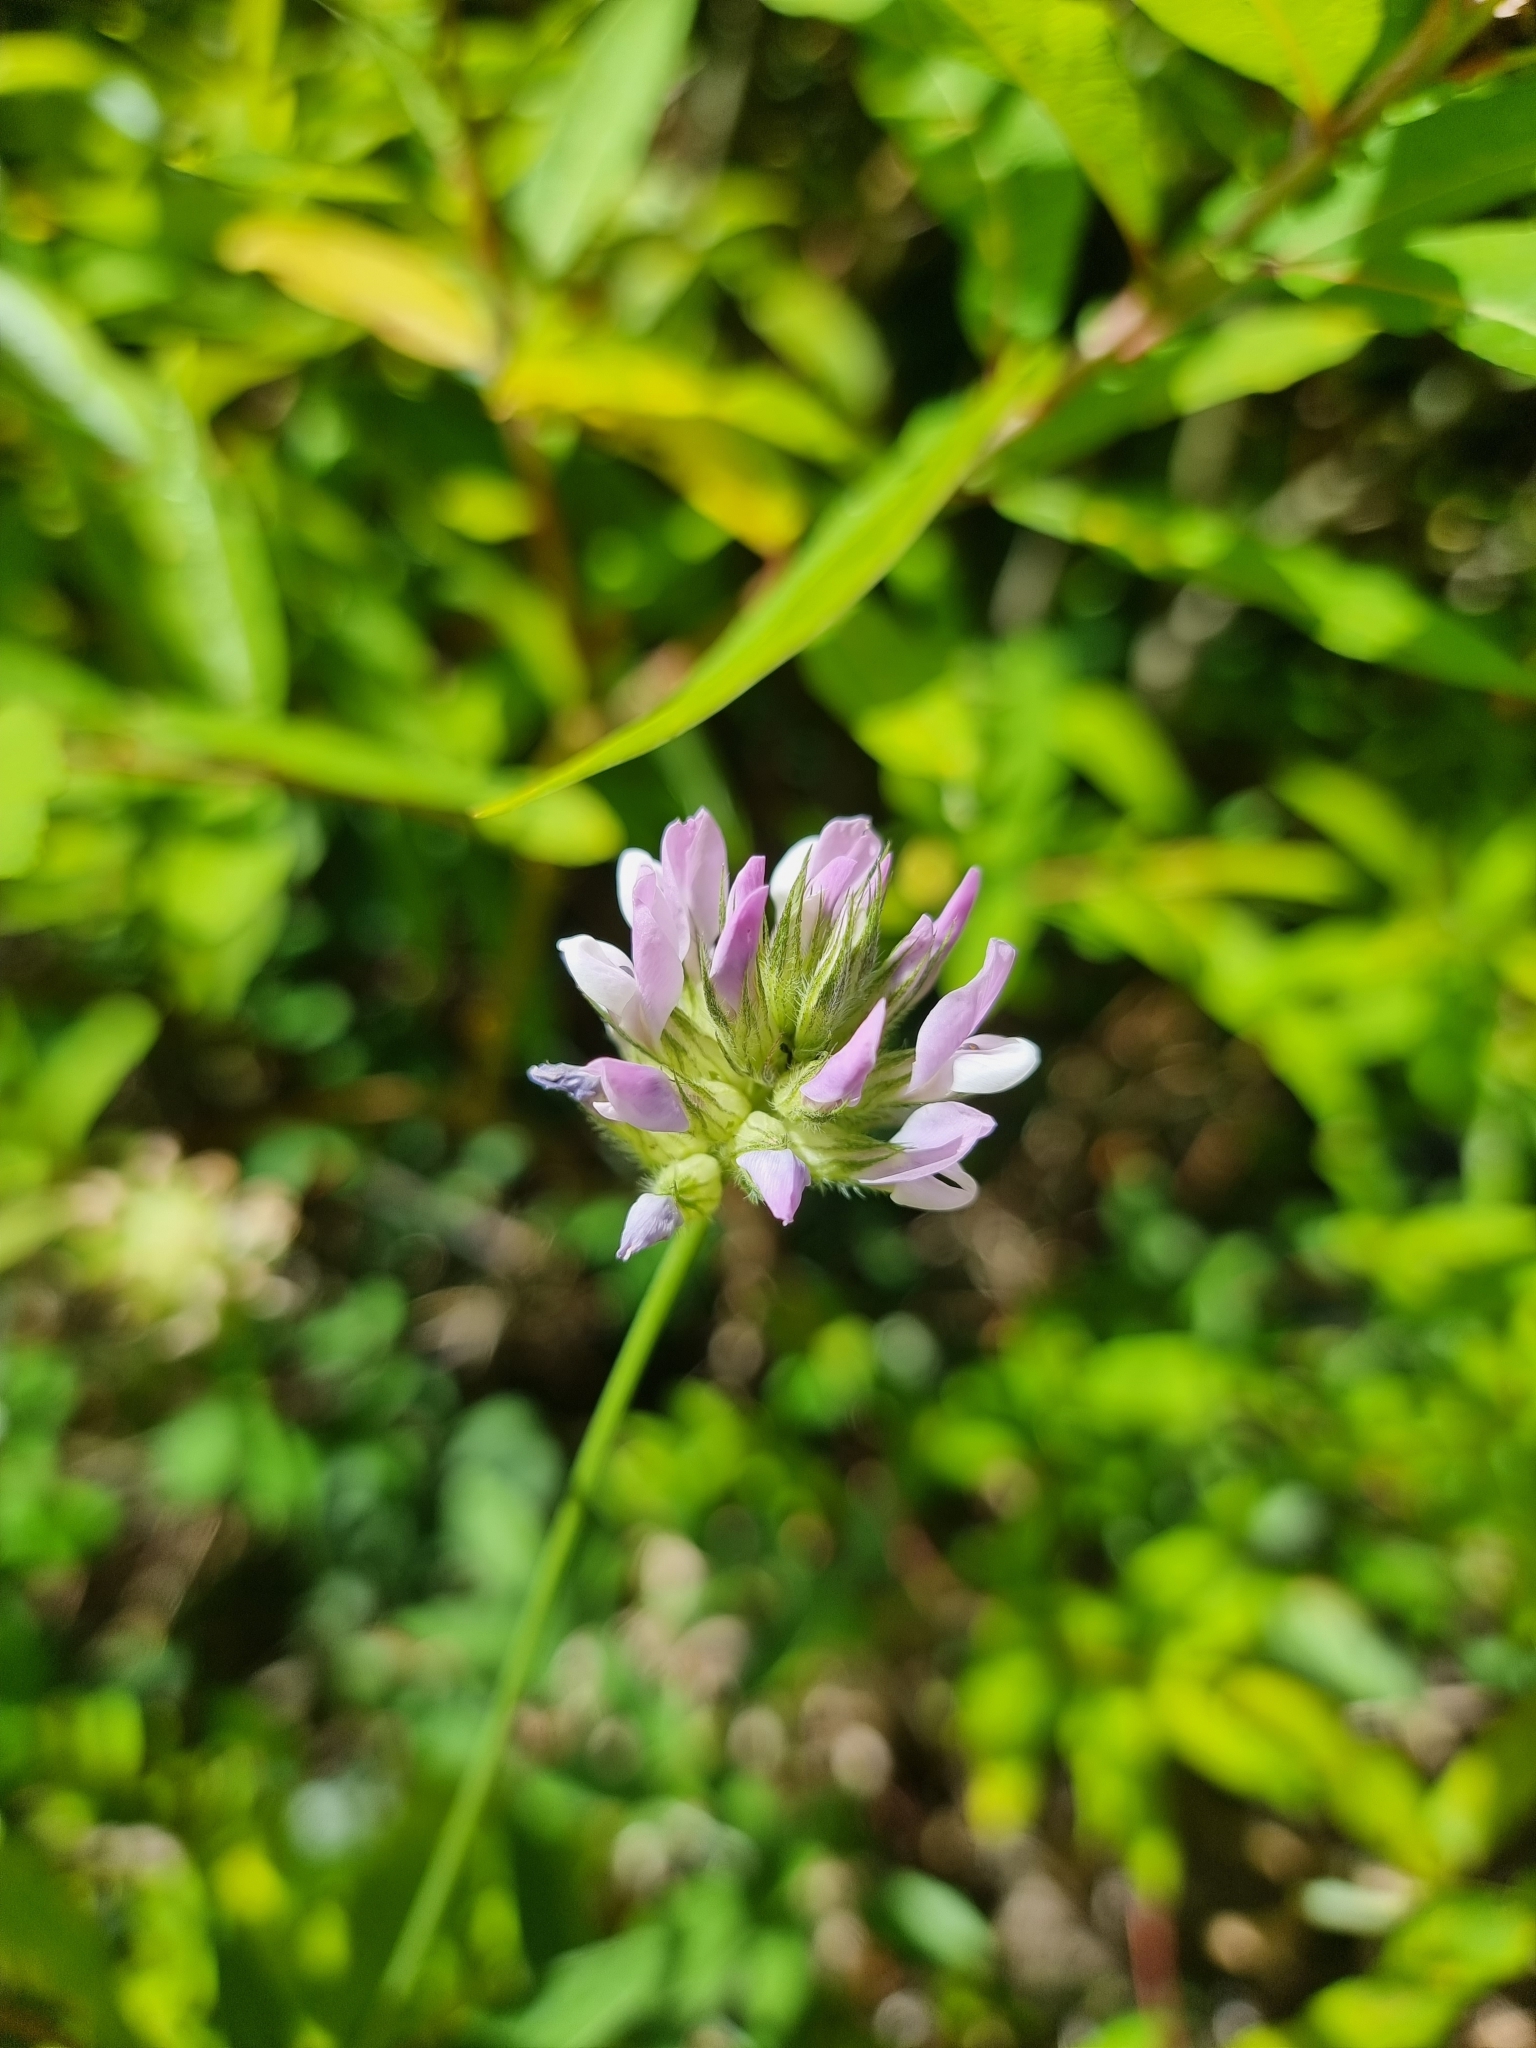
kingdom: Plantae
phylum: Tracheophyta
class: Magnoliopsida
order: Fabales
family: Fabaceae
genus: Bituminaria
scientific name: Bituminaria bituminosa
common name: Arabian pea
